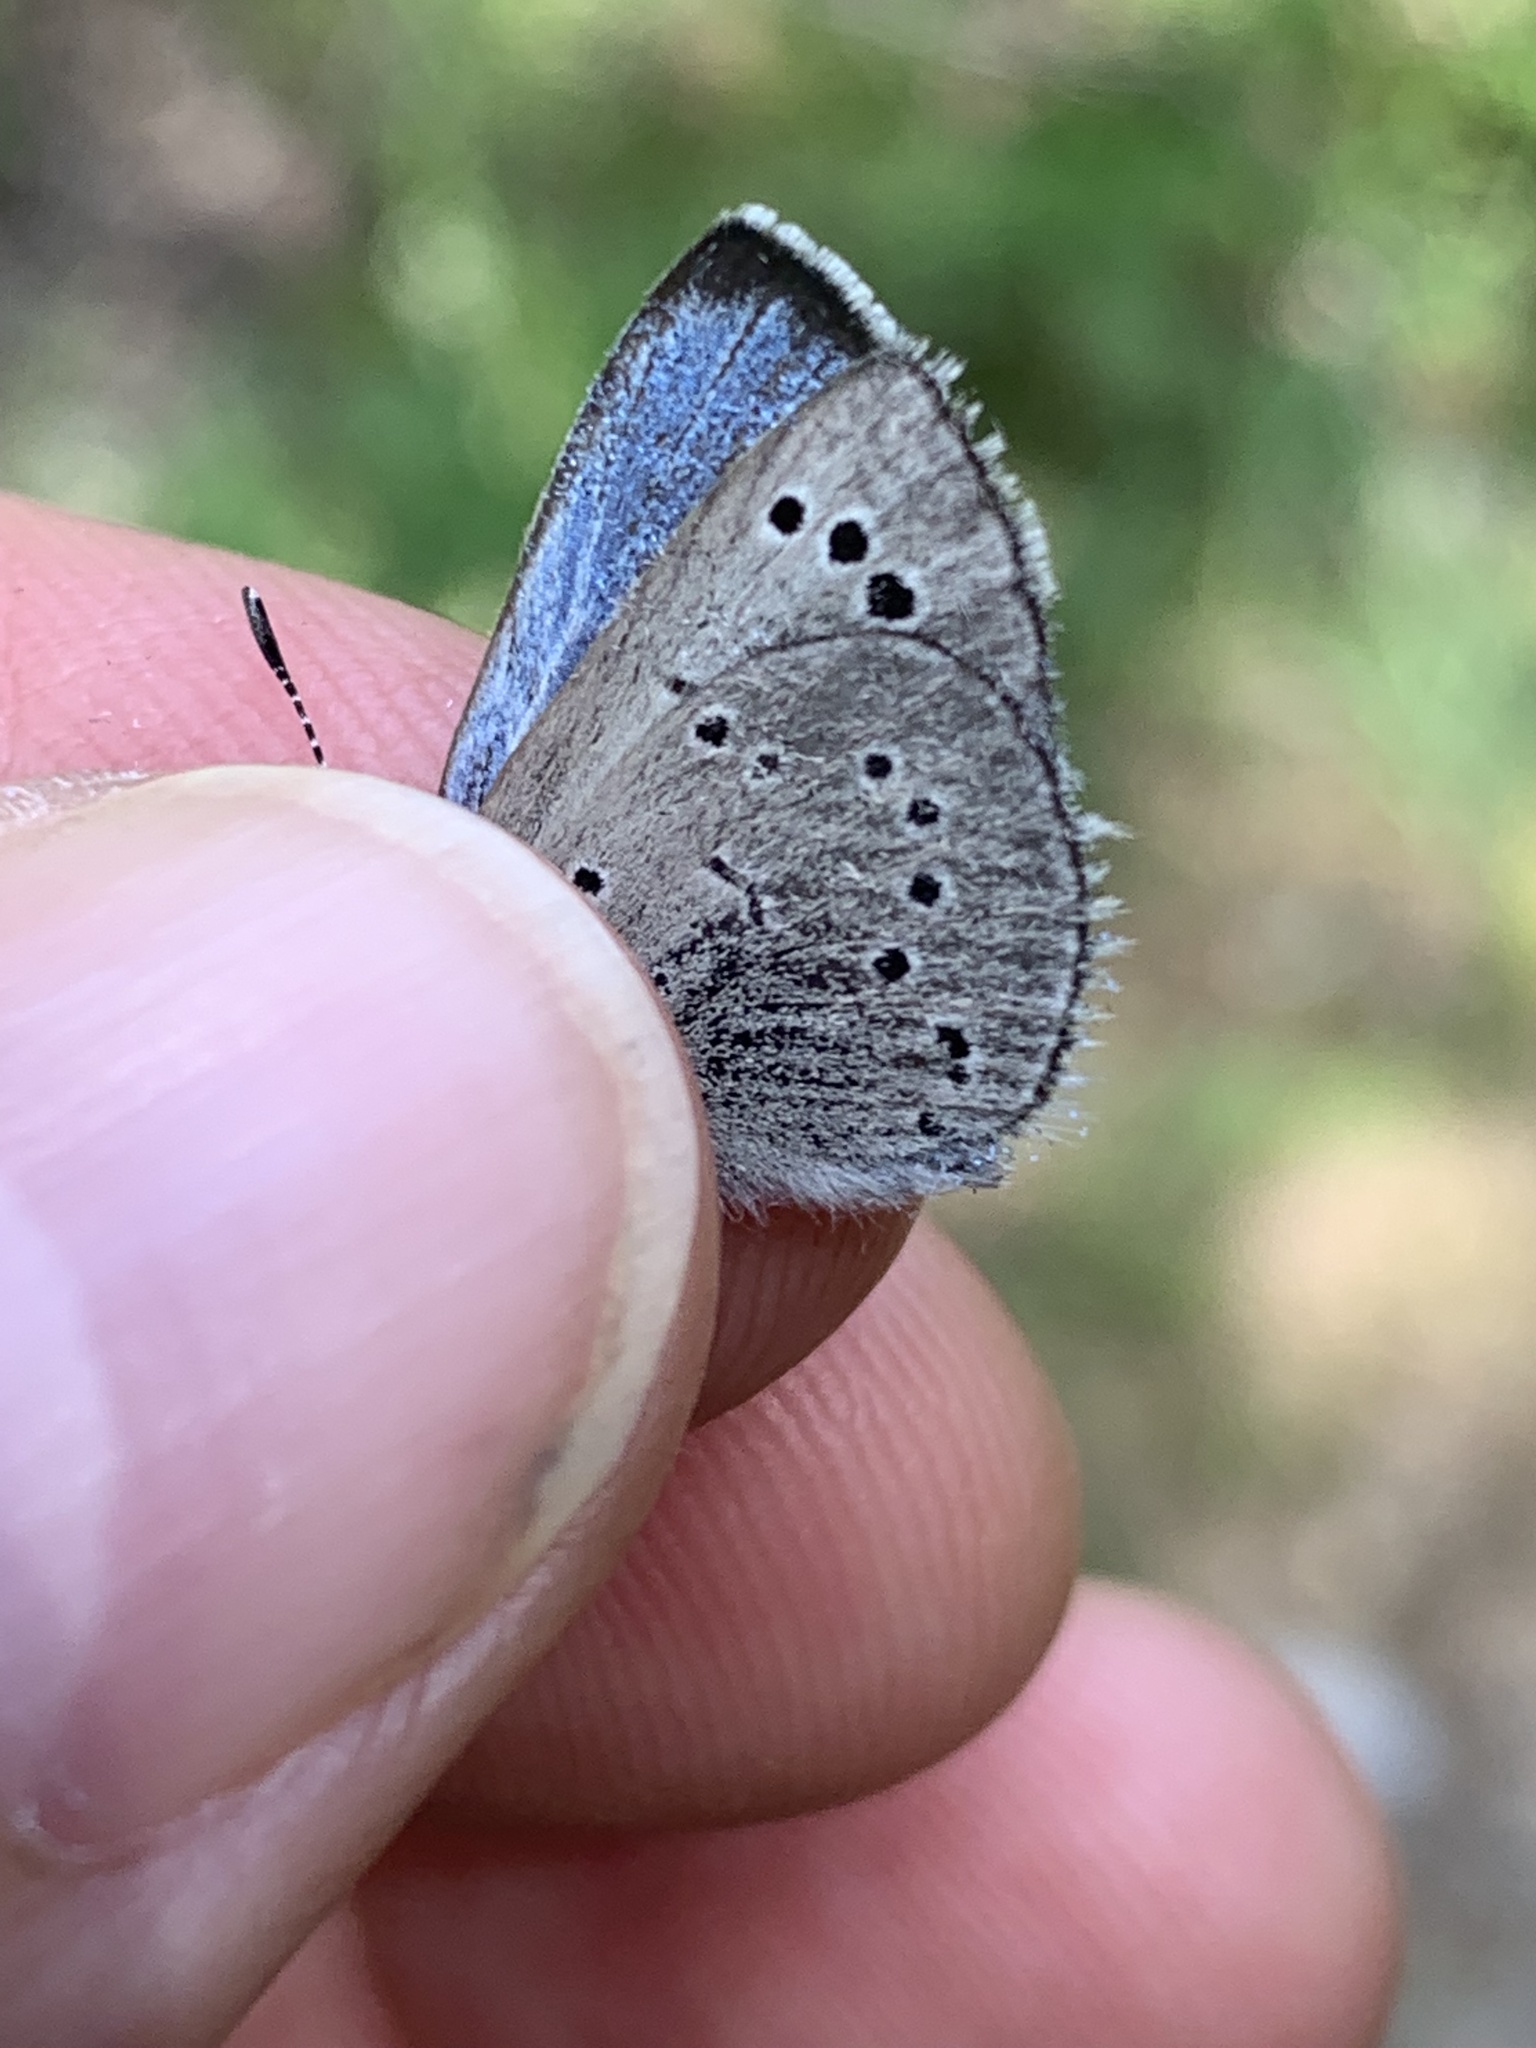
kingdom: Animalia
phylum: Arthropoda
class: Insecta
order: Lepidoptera
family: Lycaenidae
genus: Glaucopsyche
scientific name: Glaucopsyche lygdamus
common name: Silvery blue
